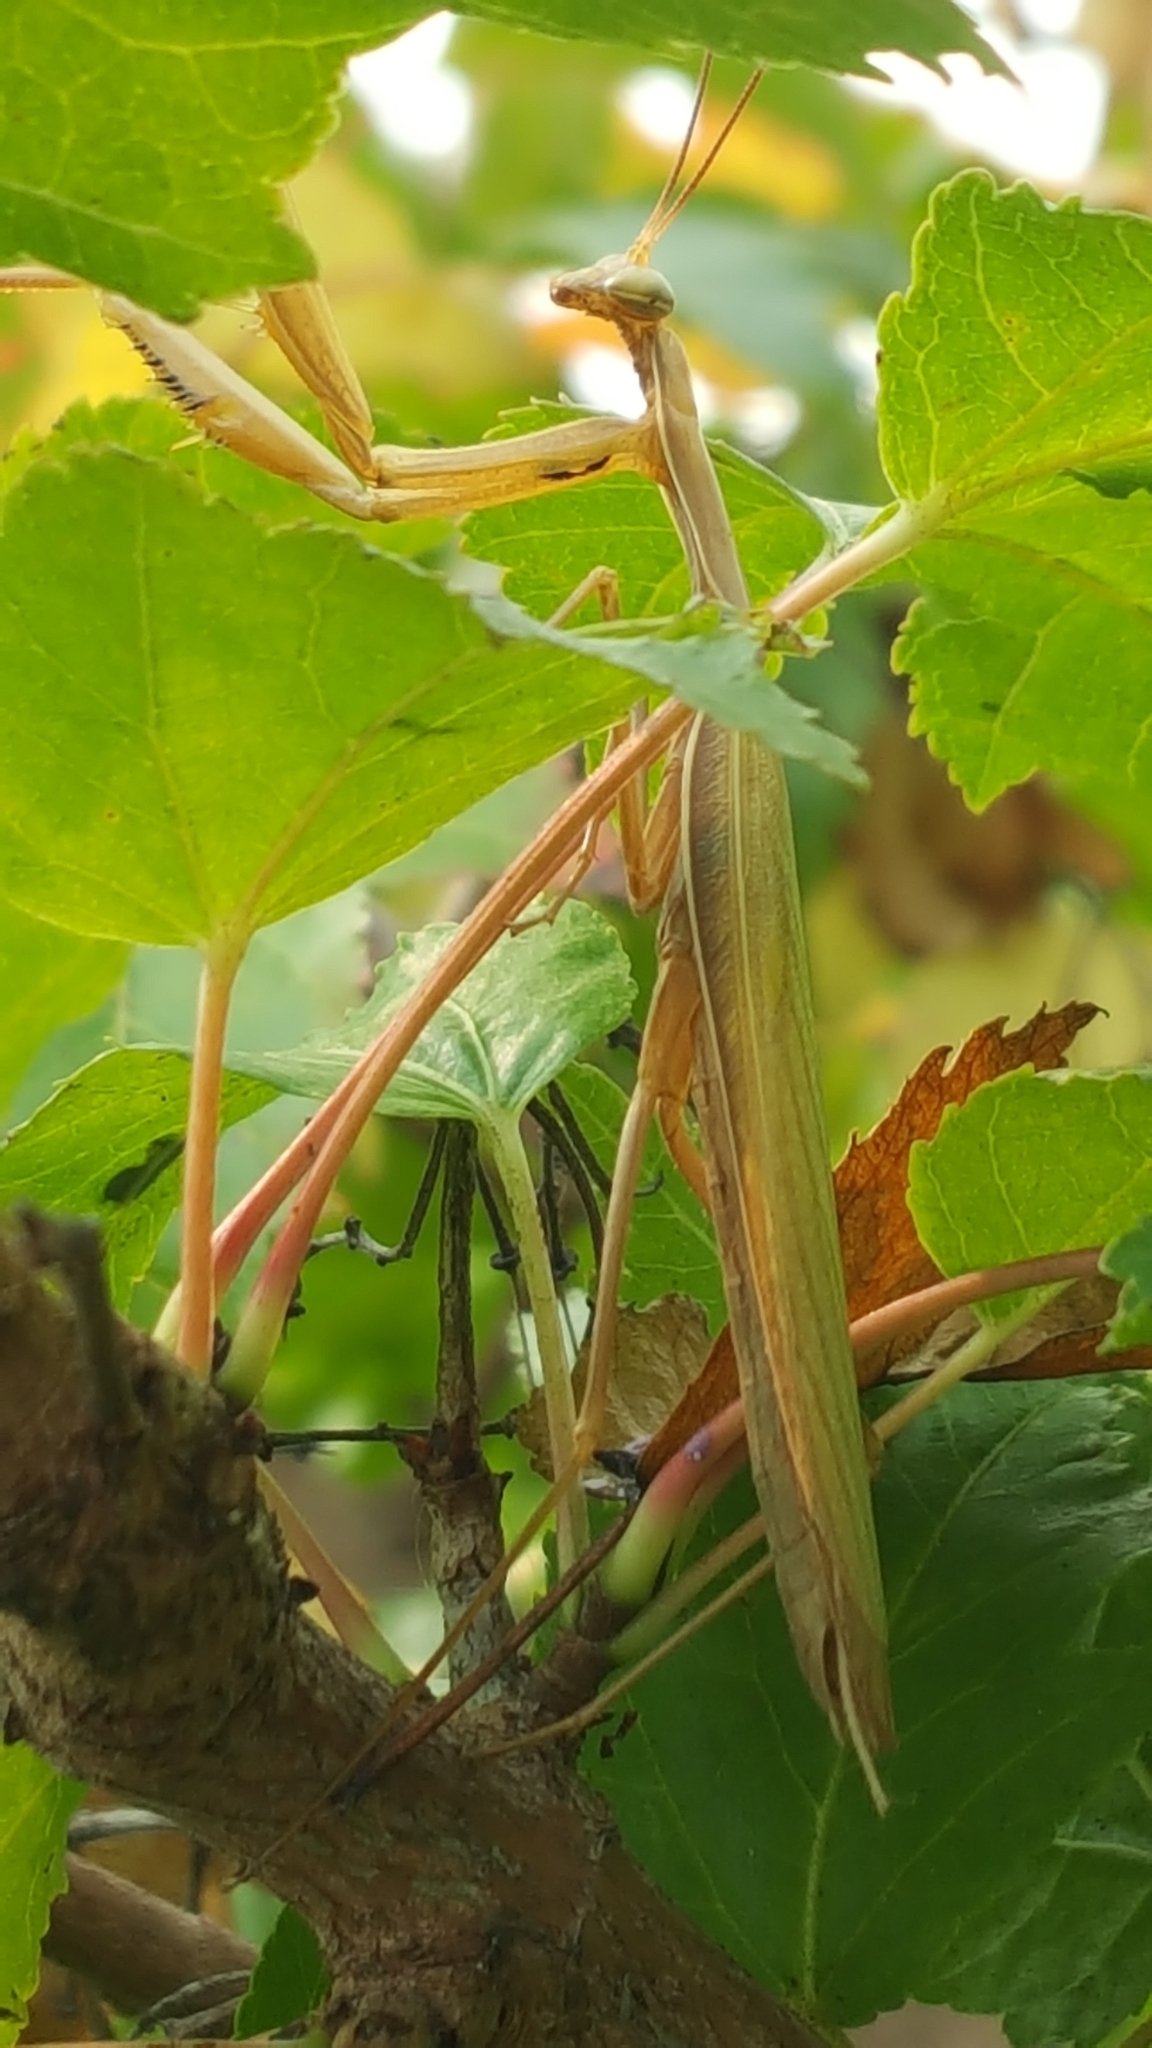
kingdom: Animalia
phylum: Arthropoda
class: Insecta
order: Mantodea
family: Mantidae
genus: Mantis
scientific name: Mantis religiosa
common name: Praying mantis
